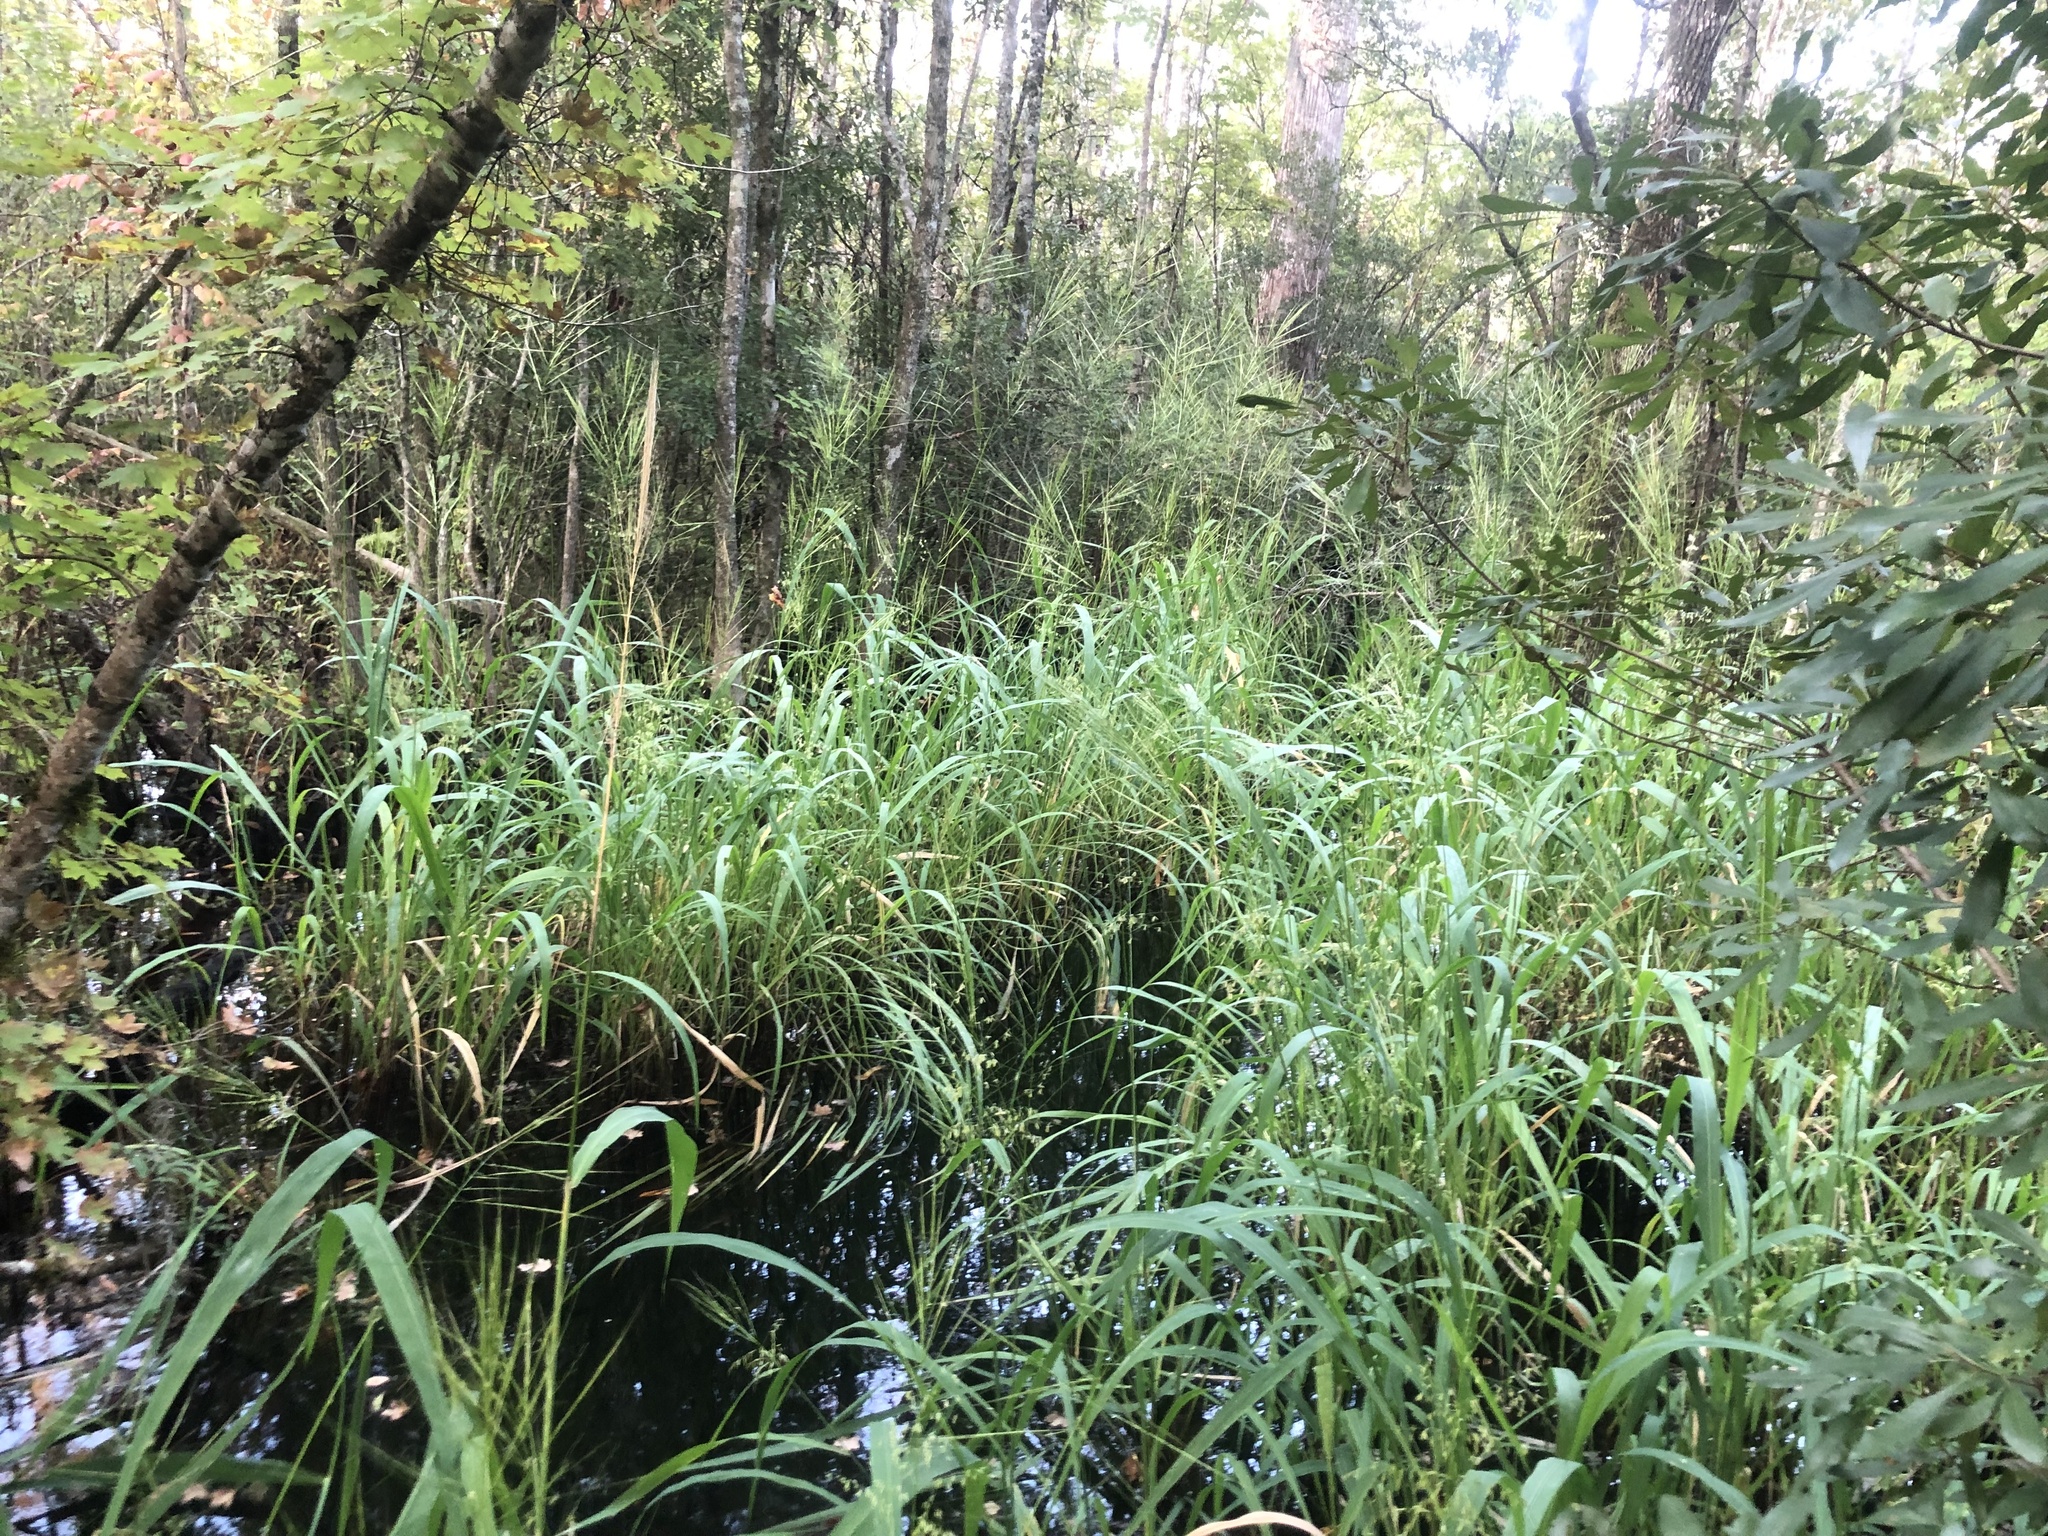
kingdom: Plantae
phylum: Tracheophyta
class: Liliopsida
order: Poales
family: Poaceae
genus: Zizania
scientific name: Zizania aquatica
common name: Annual wildrice
